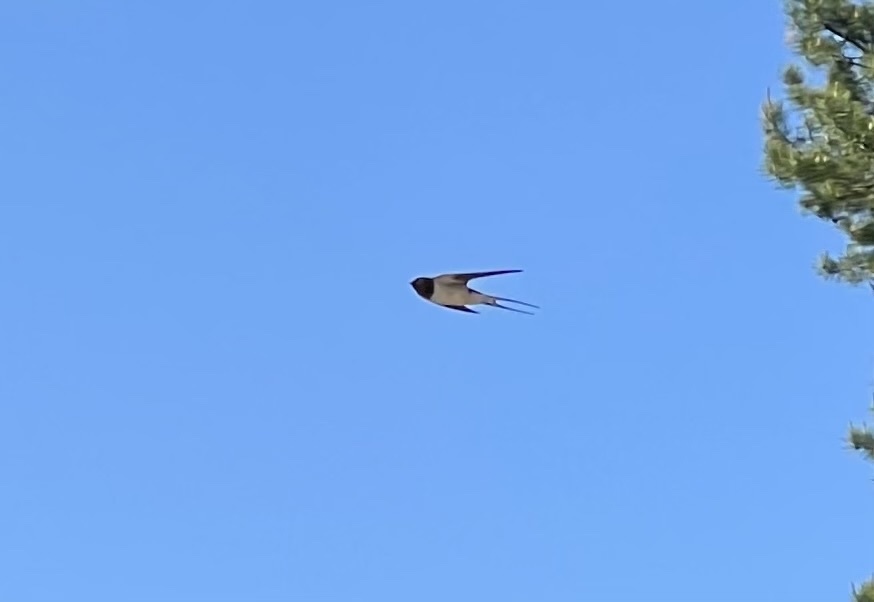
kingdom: Animalia
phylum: Chordata
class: Aves
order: Passeriformes
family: Hirundinidae
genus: Hirundo
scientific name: Hirundo rustica
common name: Barn swallow
